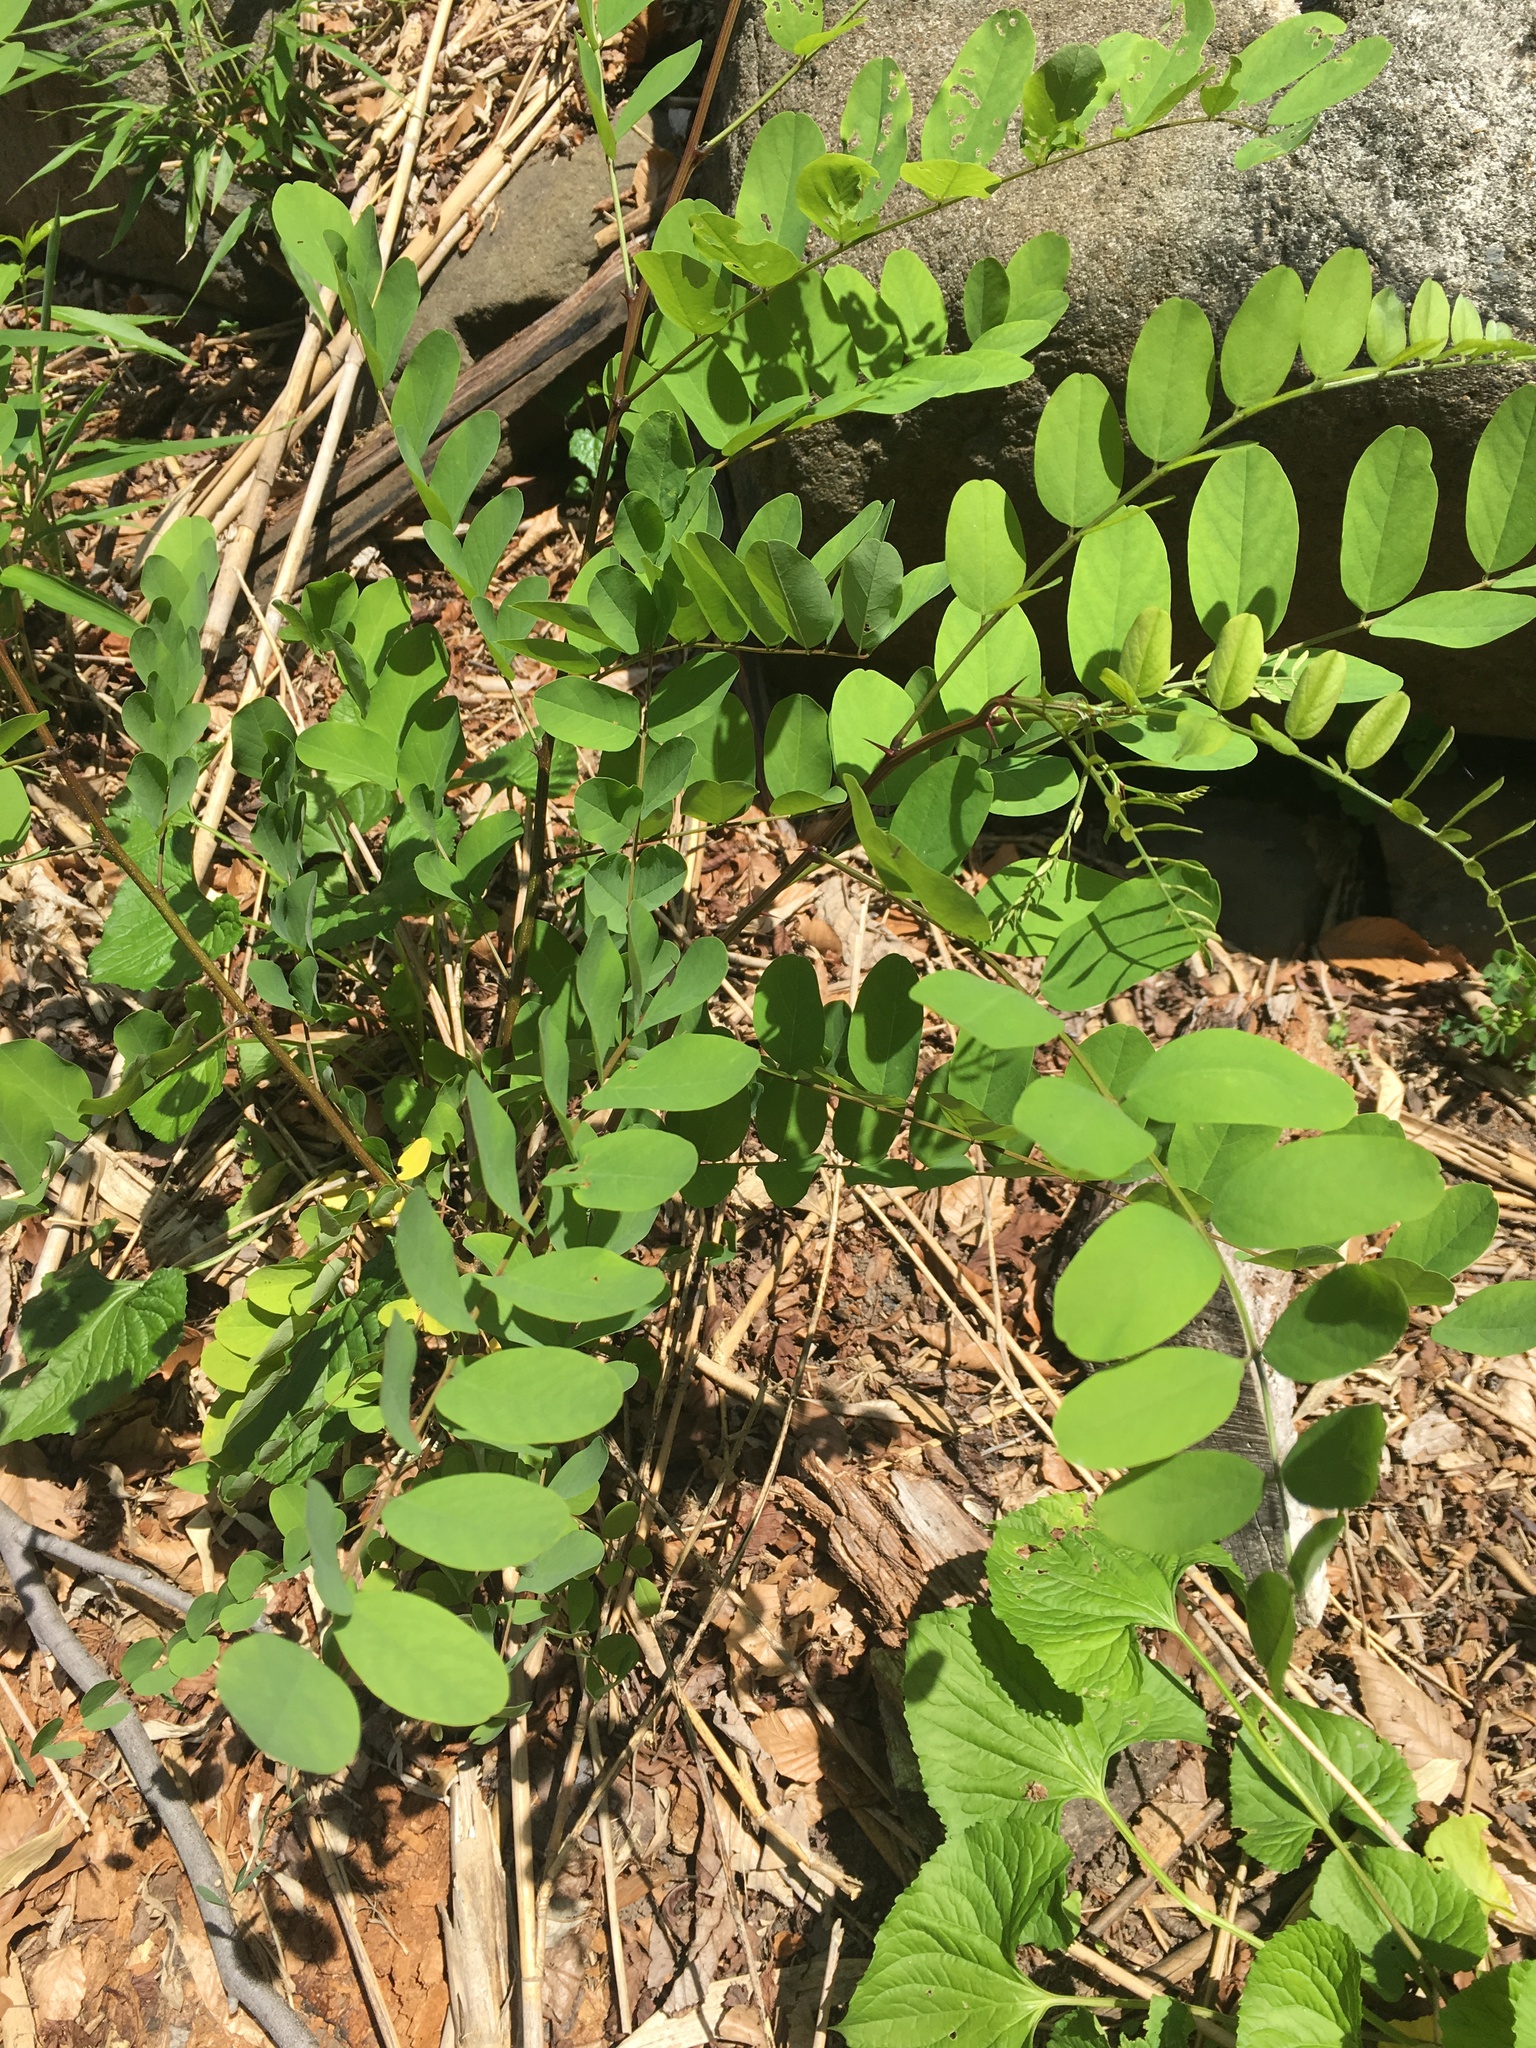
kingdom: Plantae
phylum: Tracheophyta
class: Magnoliopsida
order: Fabales
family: Fabaceae
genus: Robinia
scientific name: Robinia pseudoacacia
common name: Black locust
